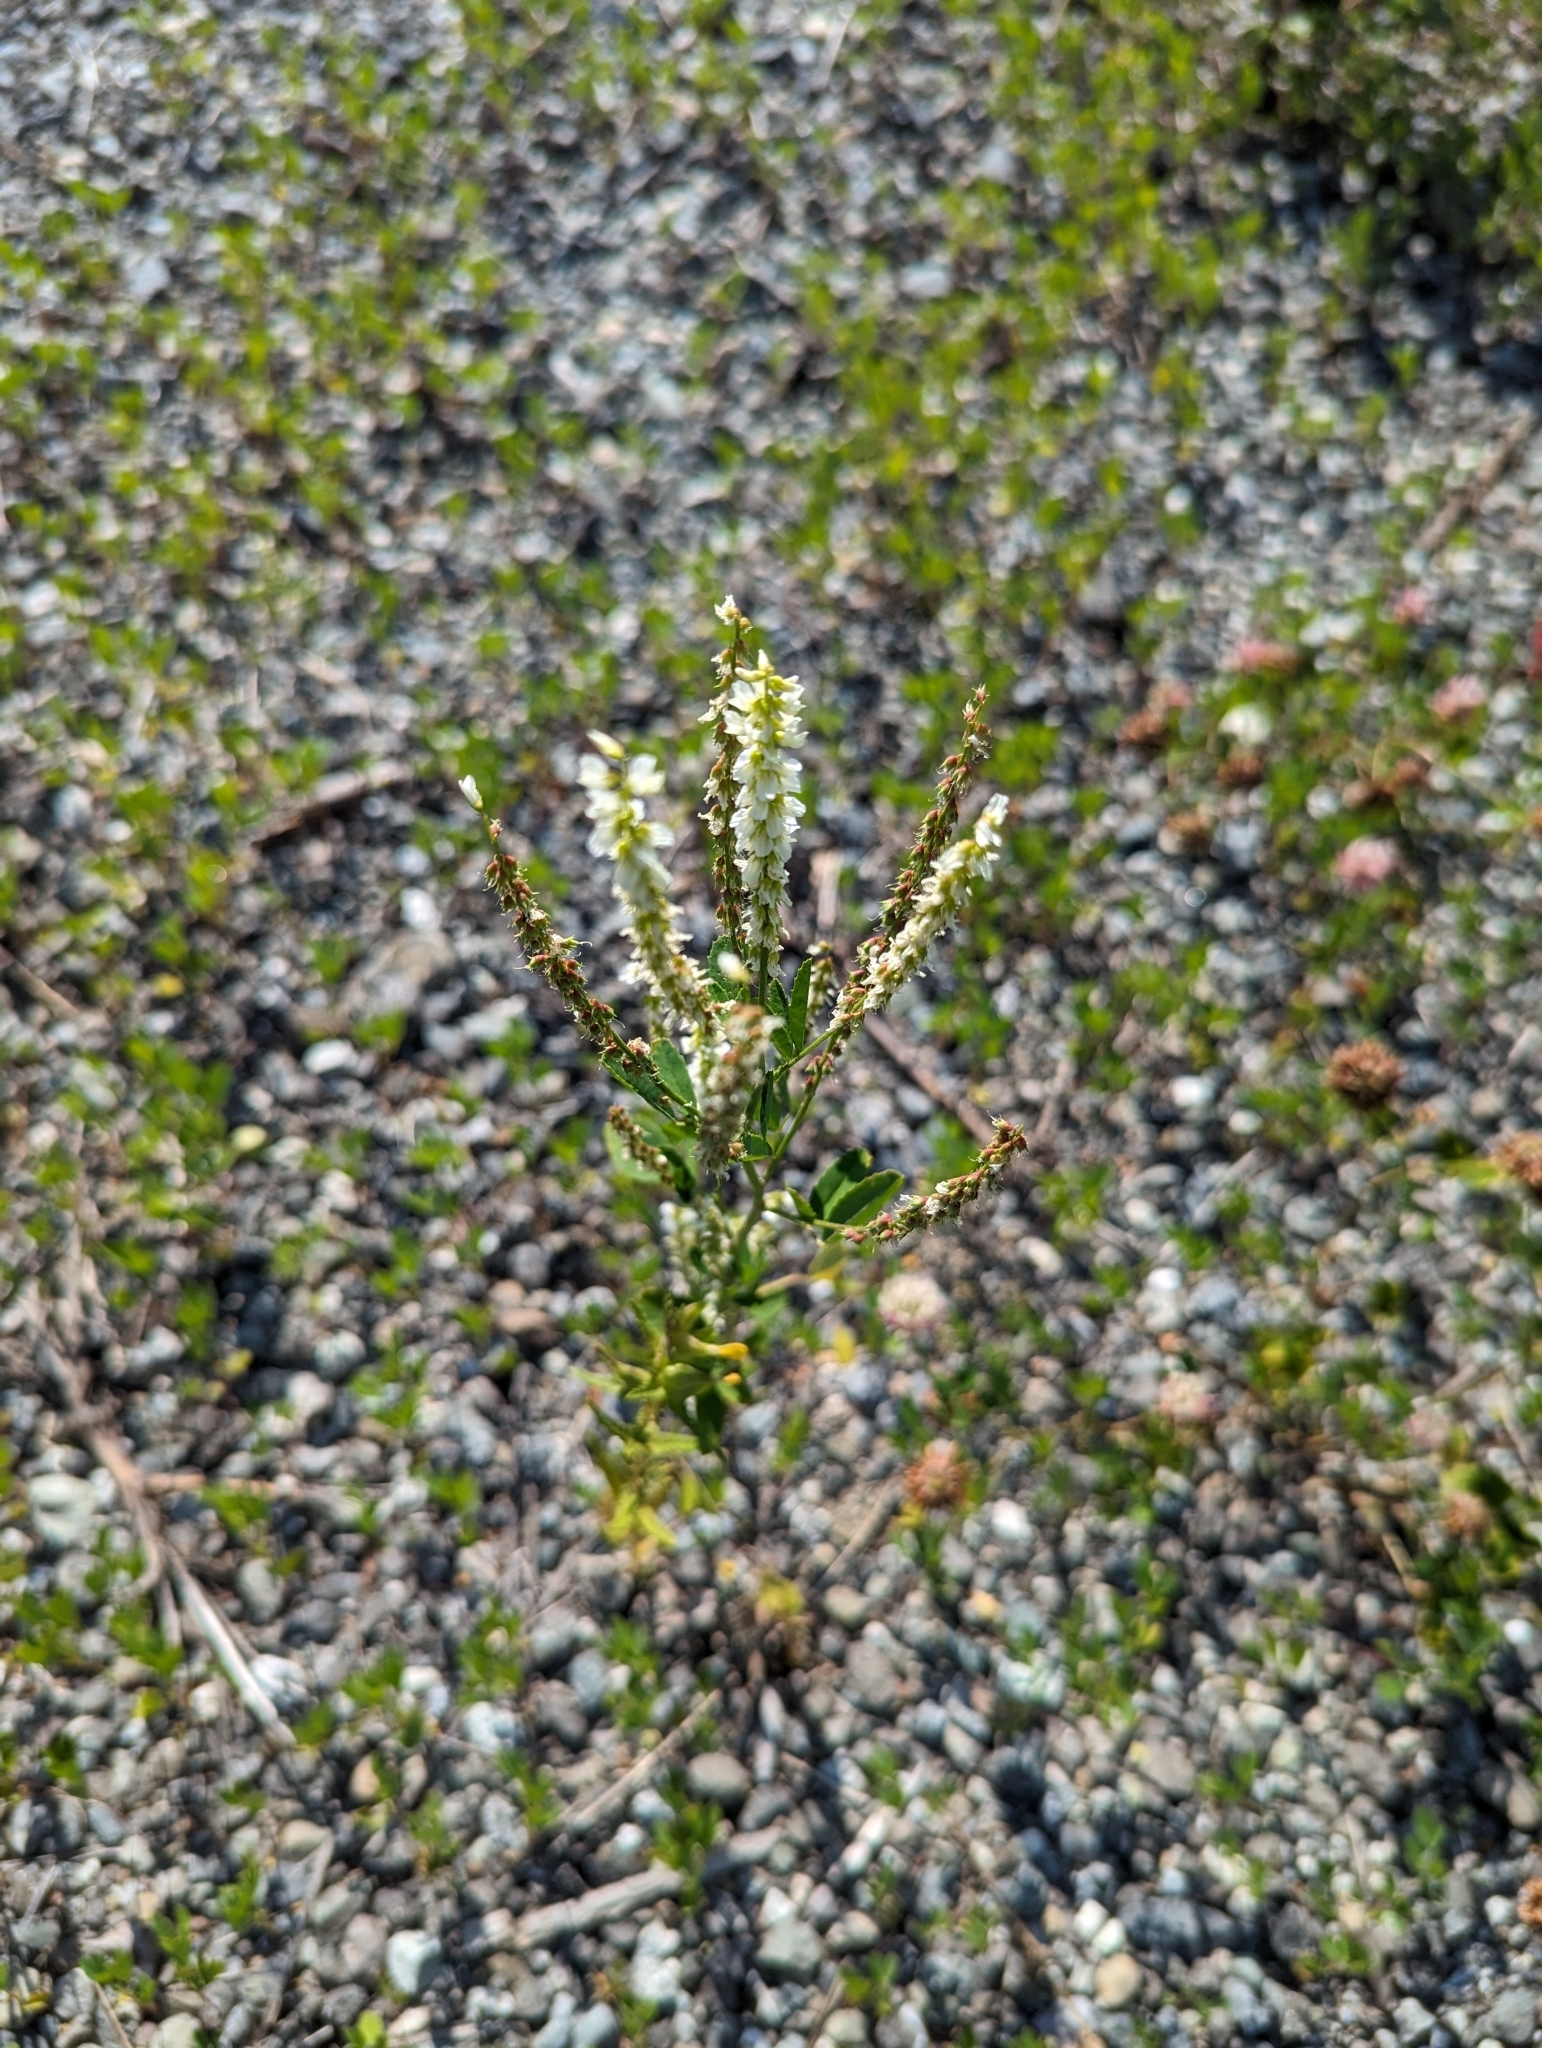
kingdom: Plantae
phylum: Tracheophyta
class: Magnoliopsida
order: Fabales
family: Fabaceae
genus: Melilotus
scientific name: Melilotus albus
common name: White melilot
